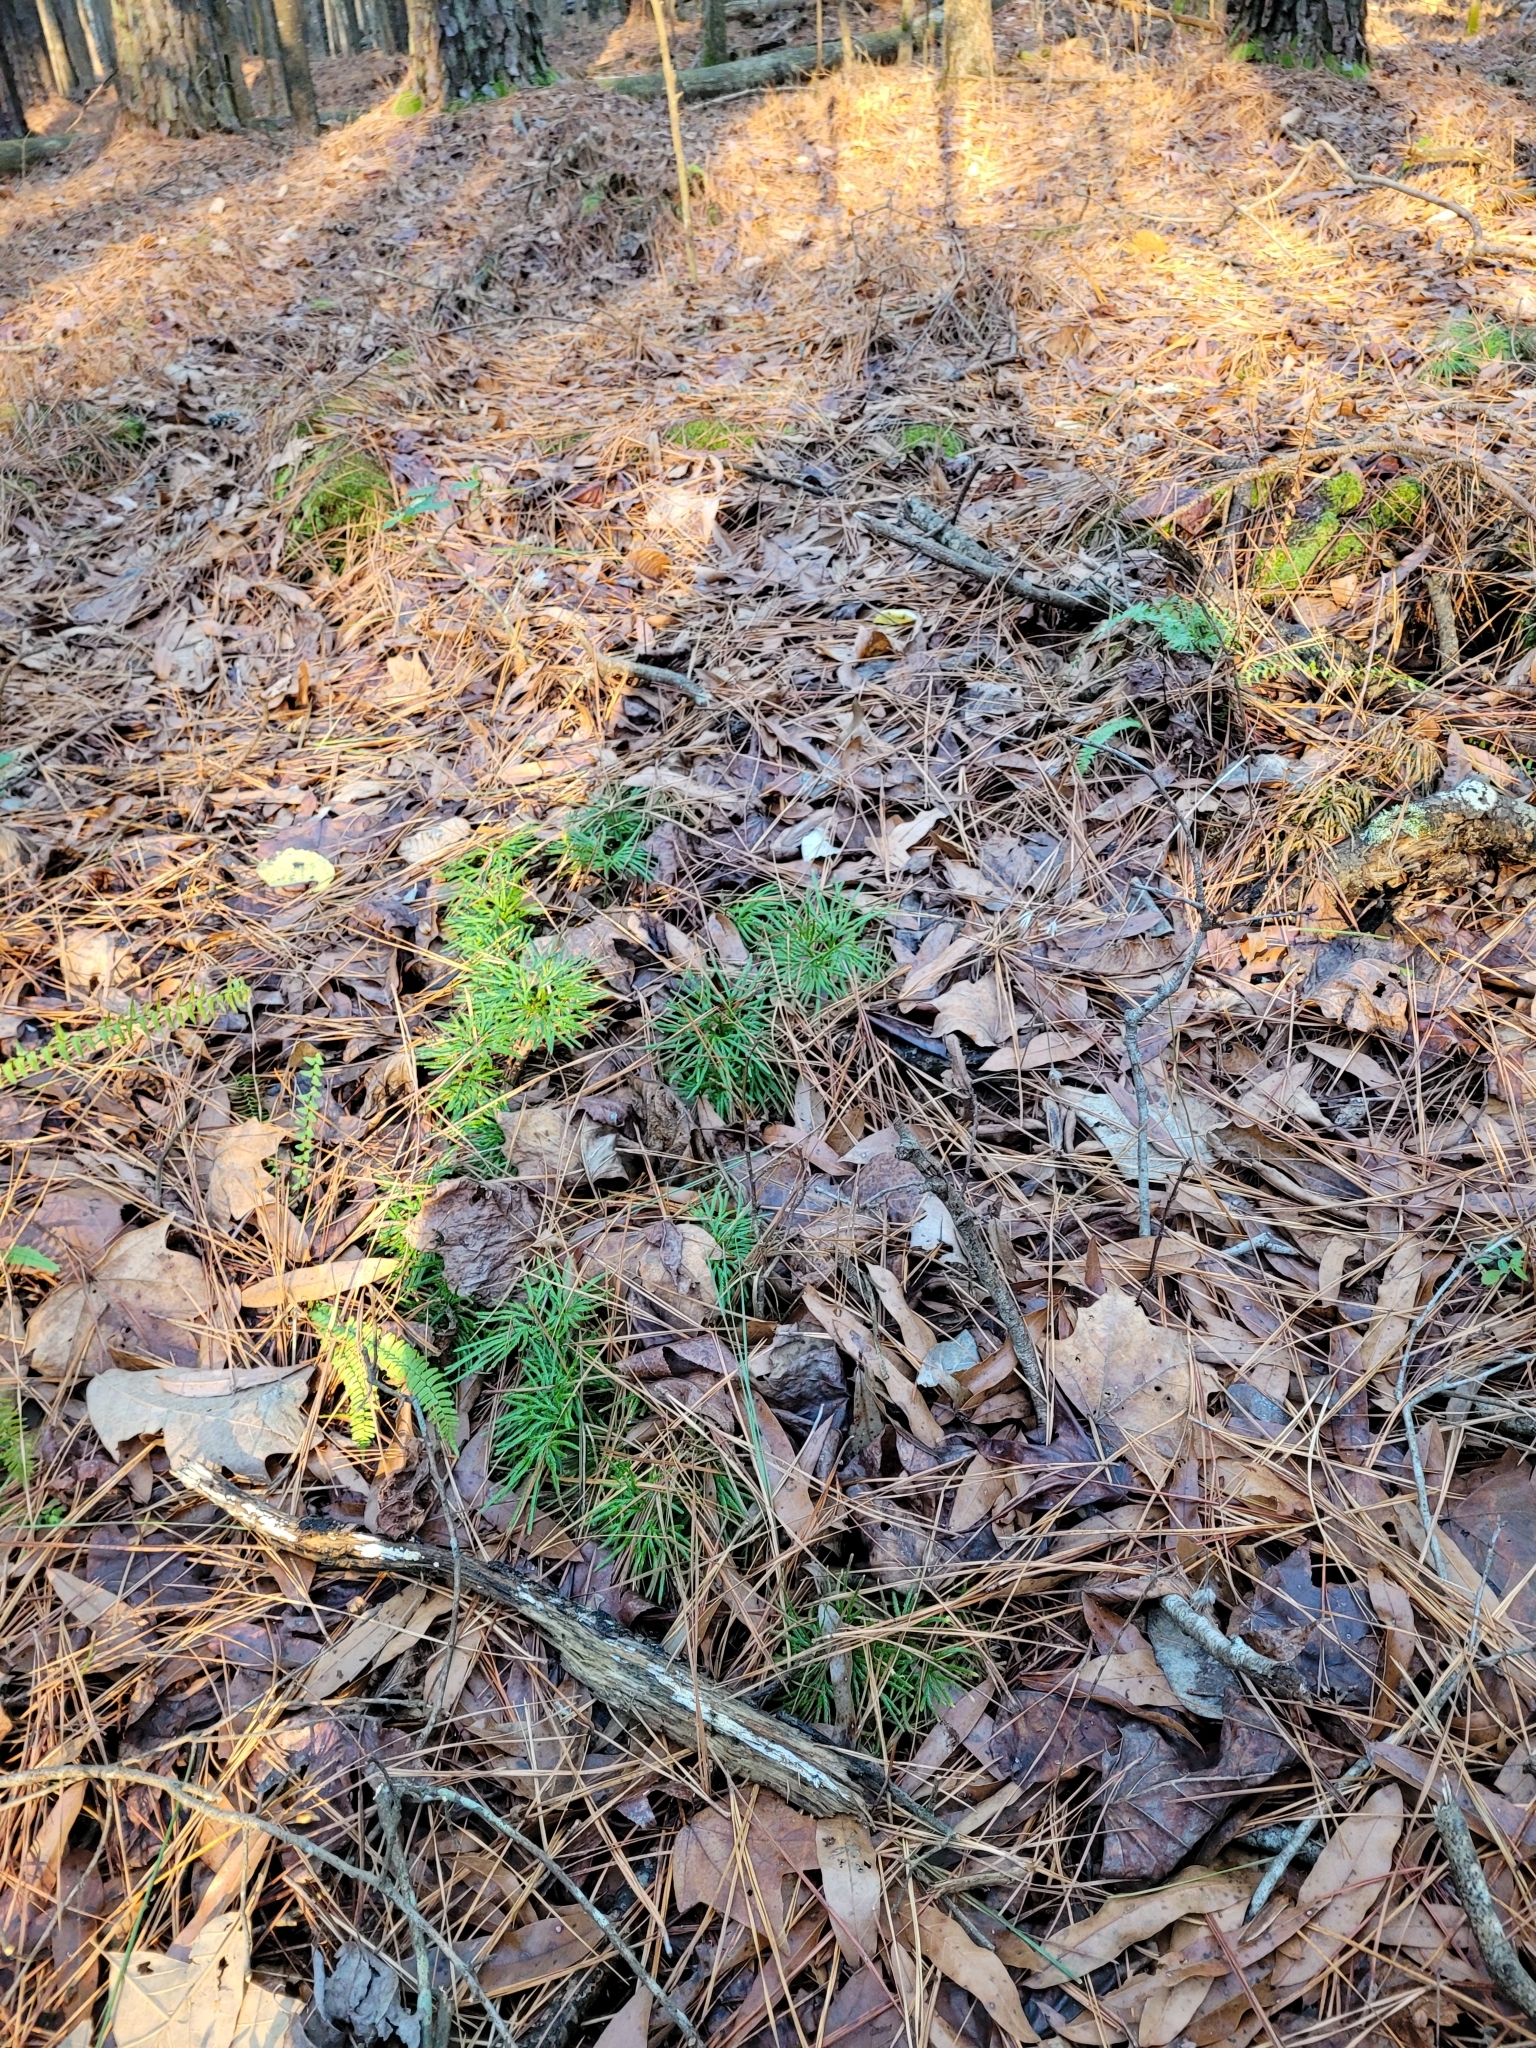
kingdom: Plantae
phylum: Tracheophyta
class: Lycopodiopsida
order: Lycopodiales
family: Lycopodiaceae
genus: Diphasiastrum
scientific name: Diphasiastrum digitatum
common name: Southern running-pine
